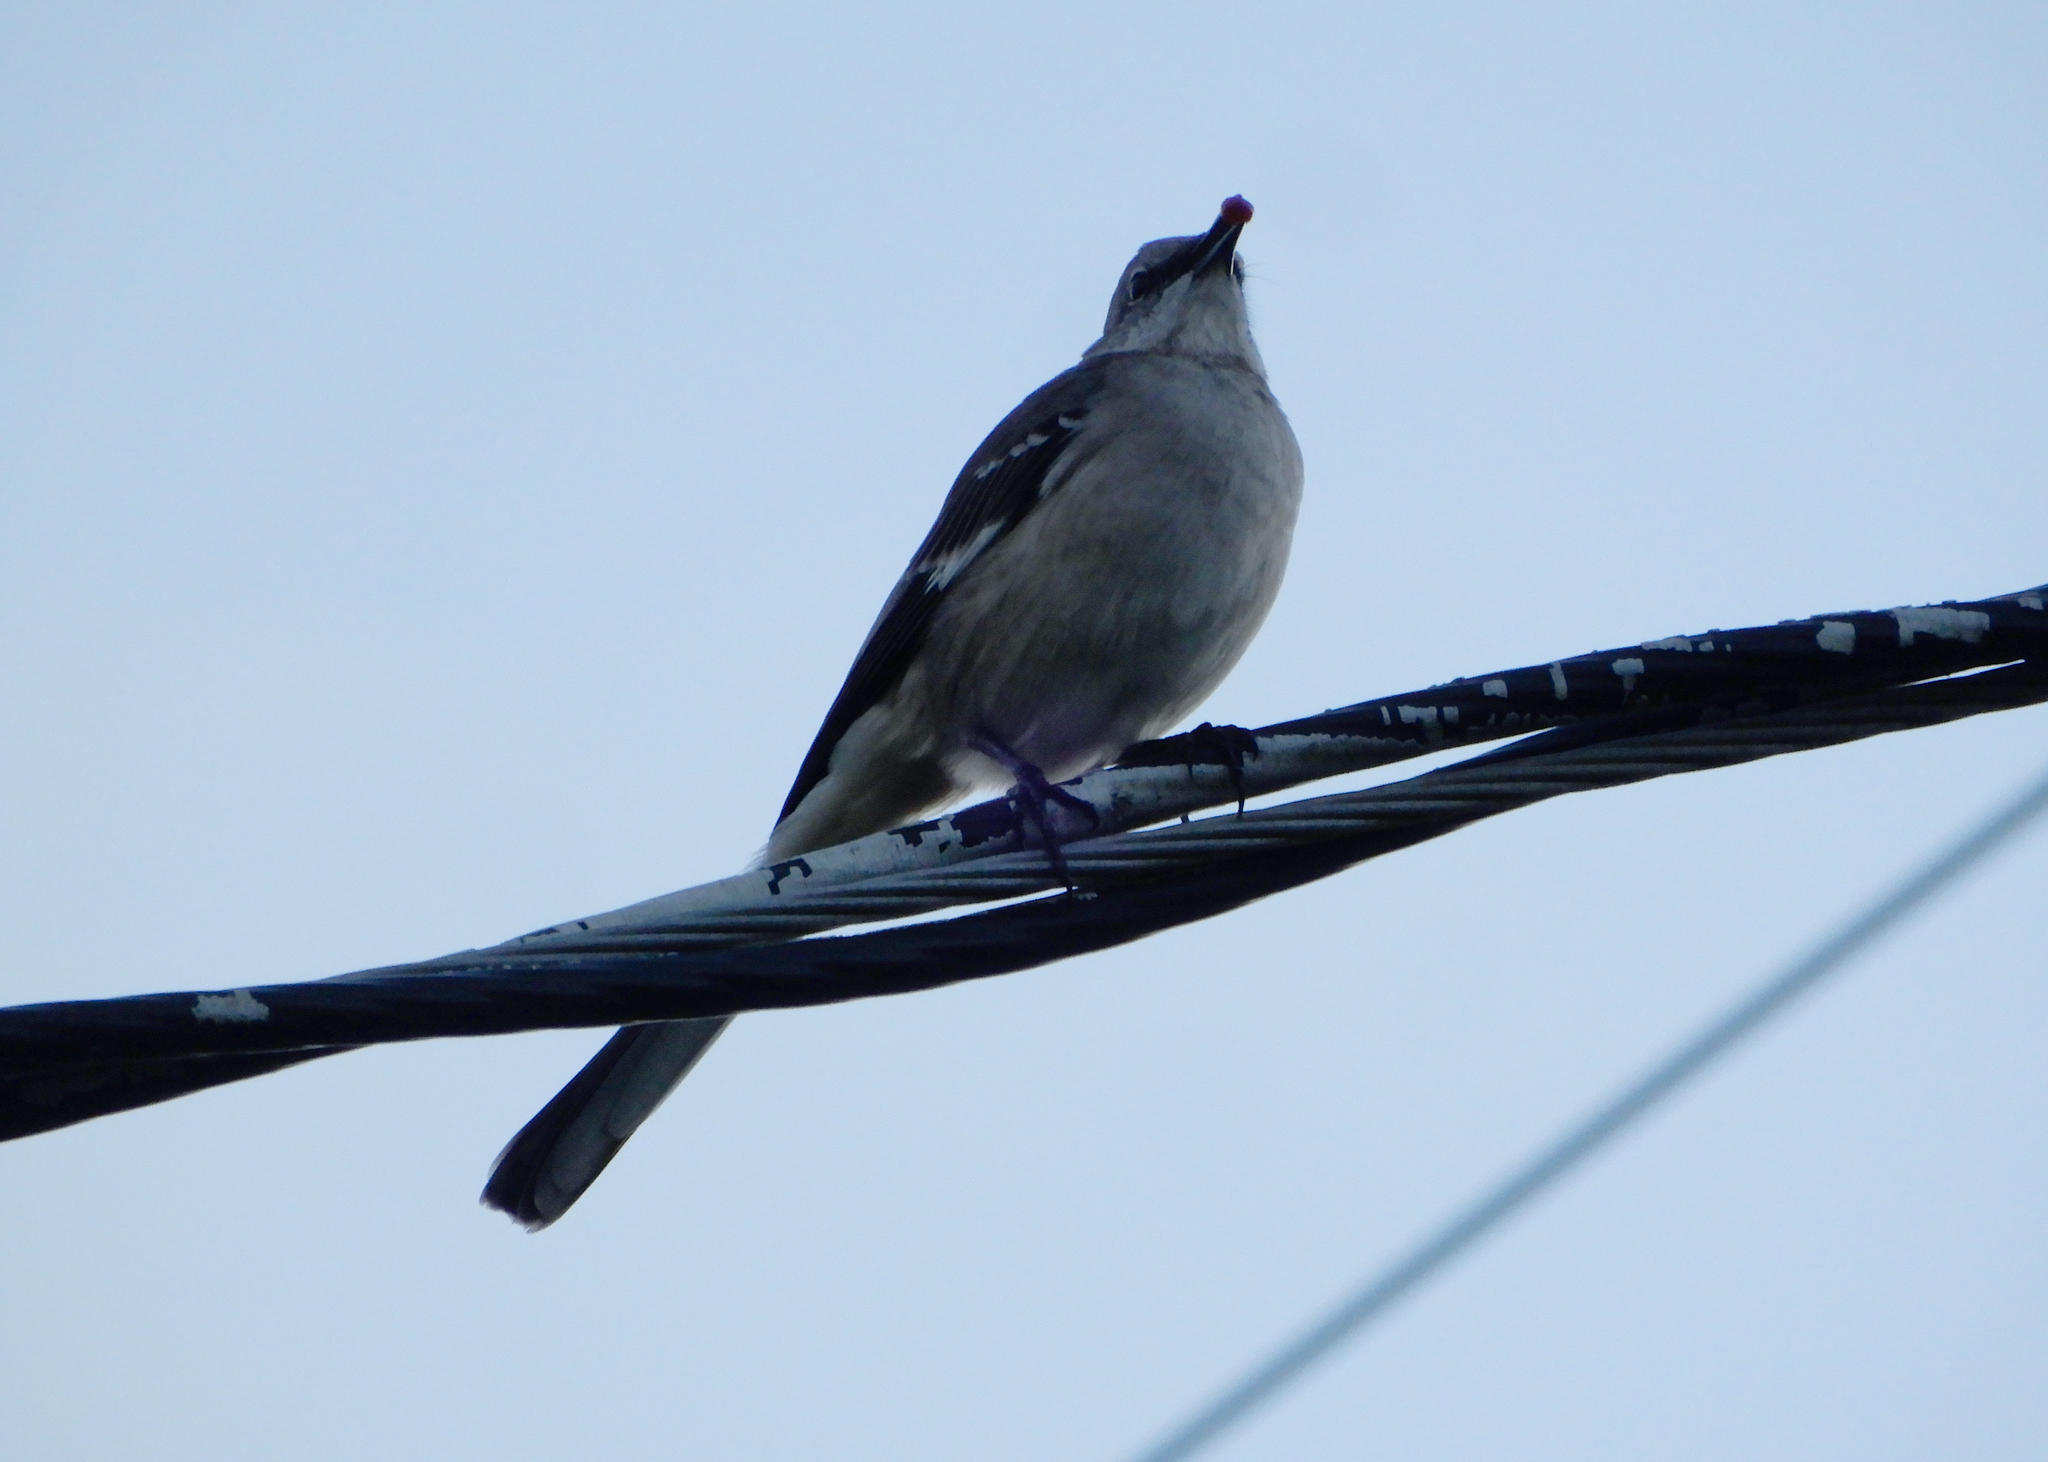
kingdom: Animalia
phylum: Chordata
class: Aves
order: Passeriformes
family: Mimidae
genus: Mimus
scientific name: Mimus polyglottos
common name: Northern mockingbird
